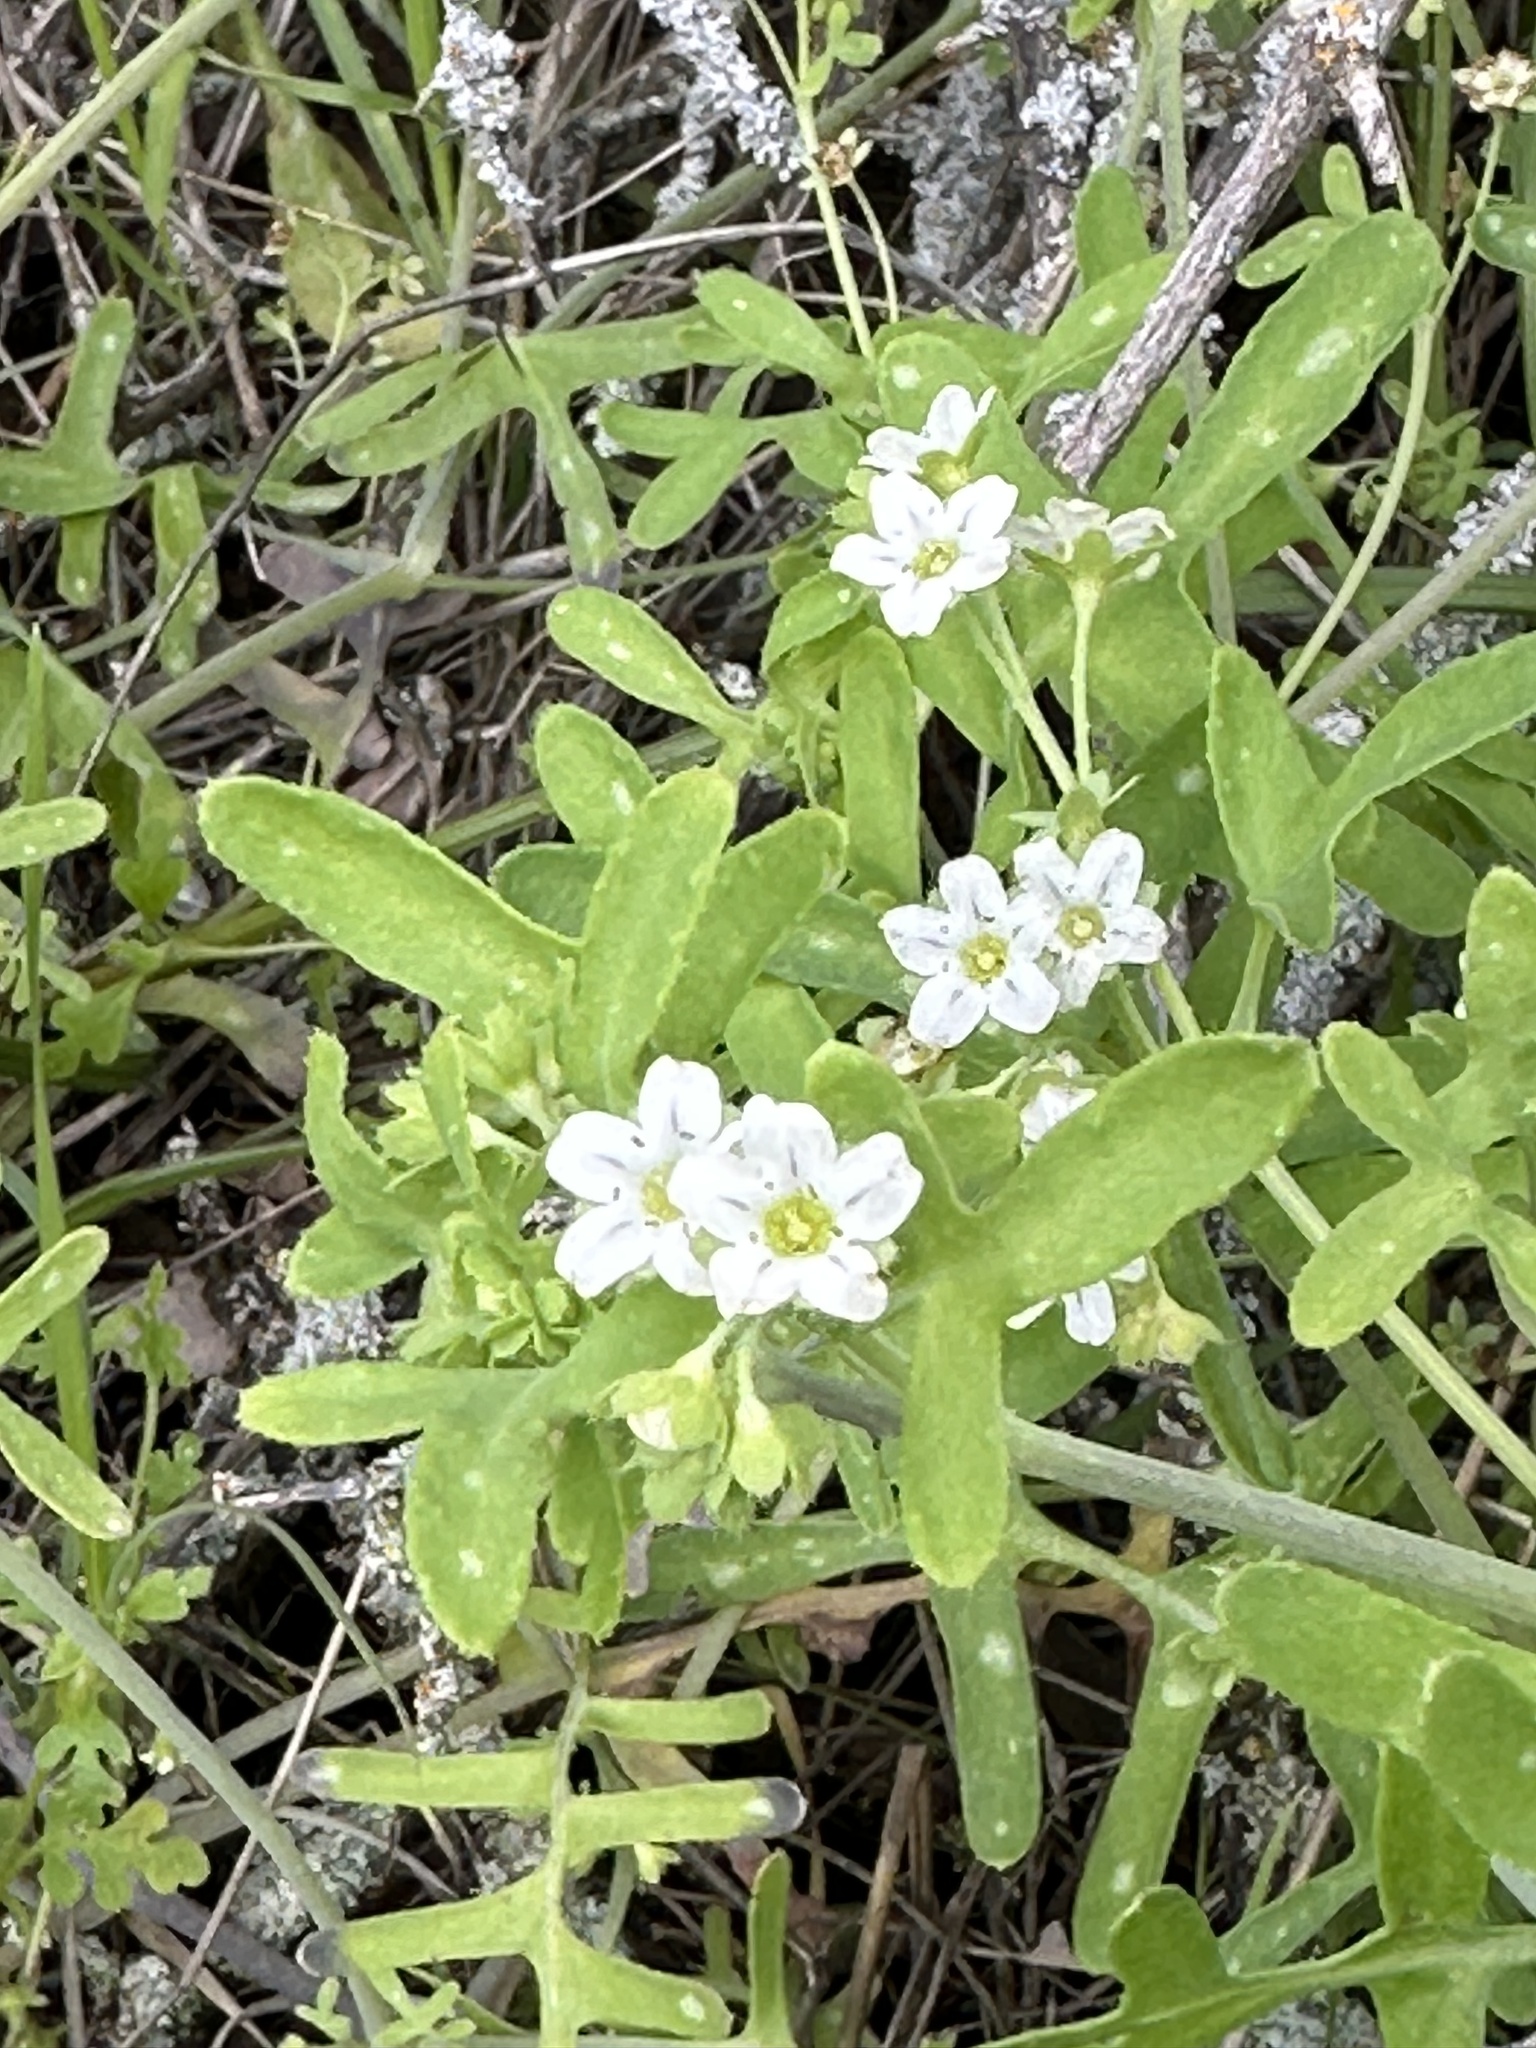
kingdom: Plantae
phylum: Tracheophyta
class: Magnoliopsida
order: Boraginales
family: Hydrophyllaceae
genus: Pholistoma
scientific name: Pholistoma membranaceum
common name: White fiesta-flower
